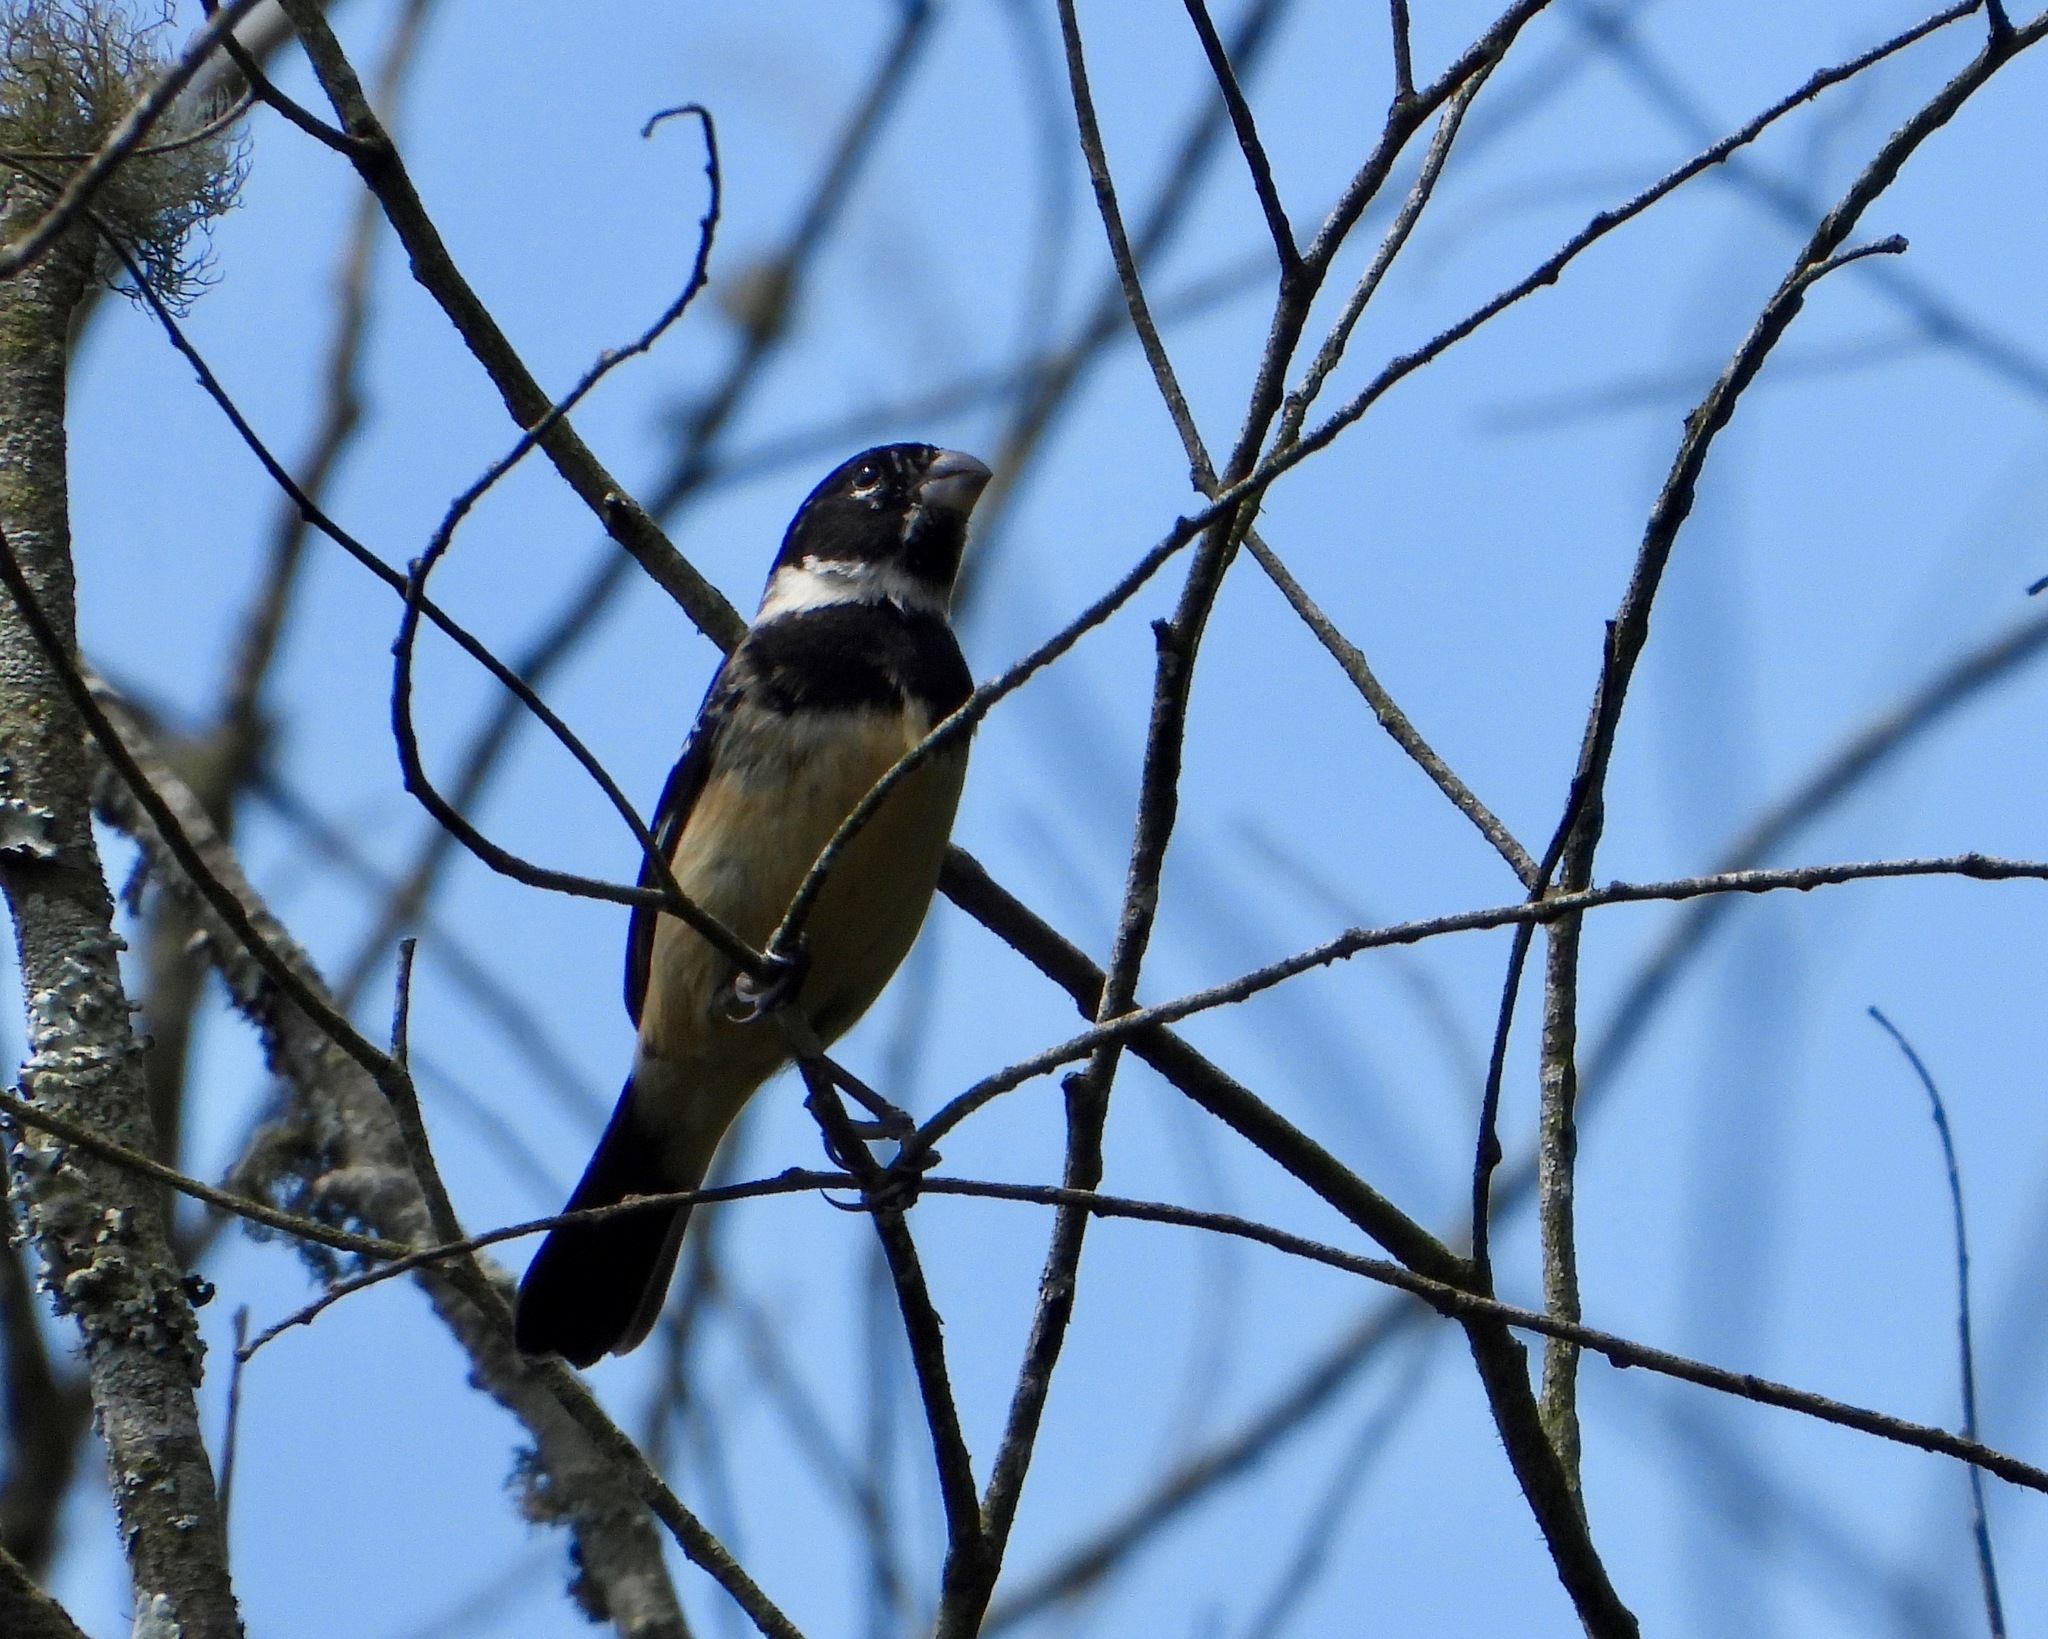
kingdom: Animalia
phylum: Chordata
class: Aves
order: Passeriformes
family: Thraupidae
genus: Sporophila
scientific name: Sporophila morelleti
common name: Morelet's seedeater
